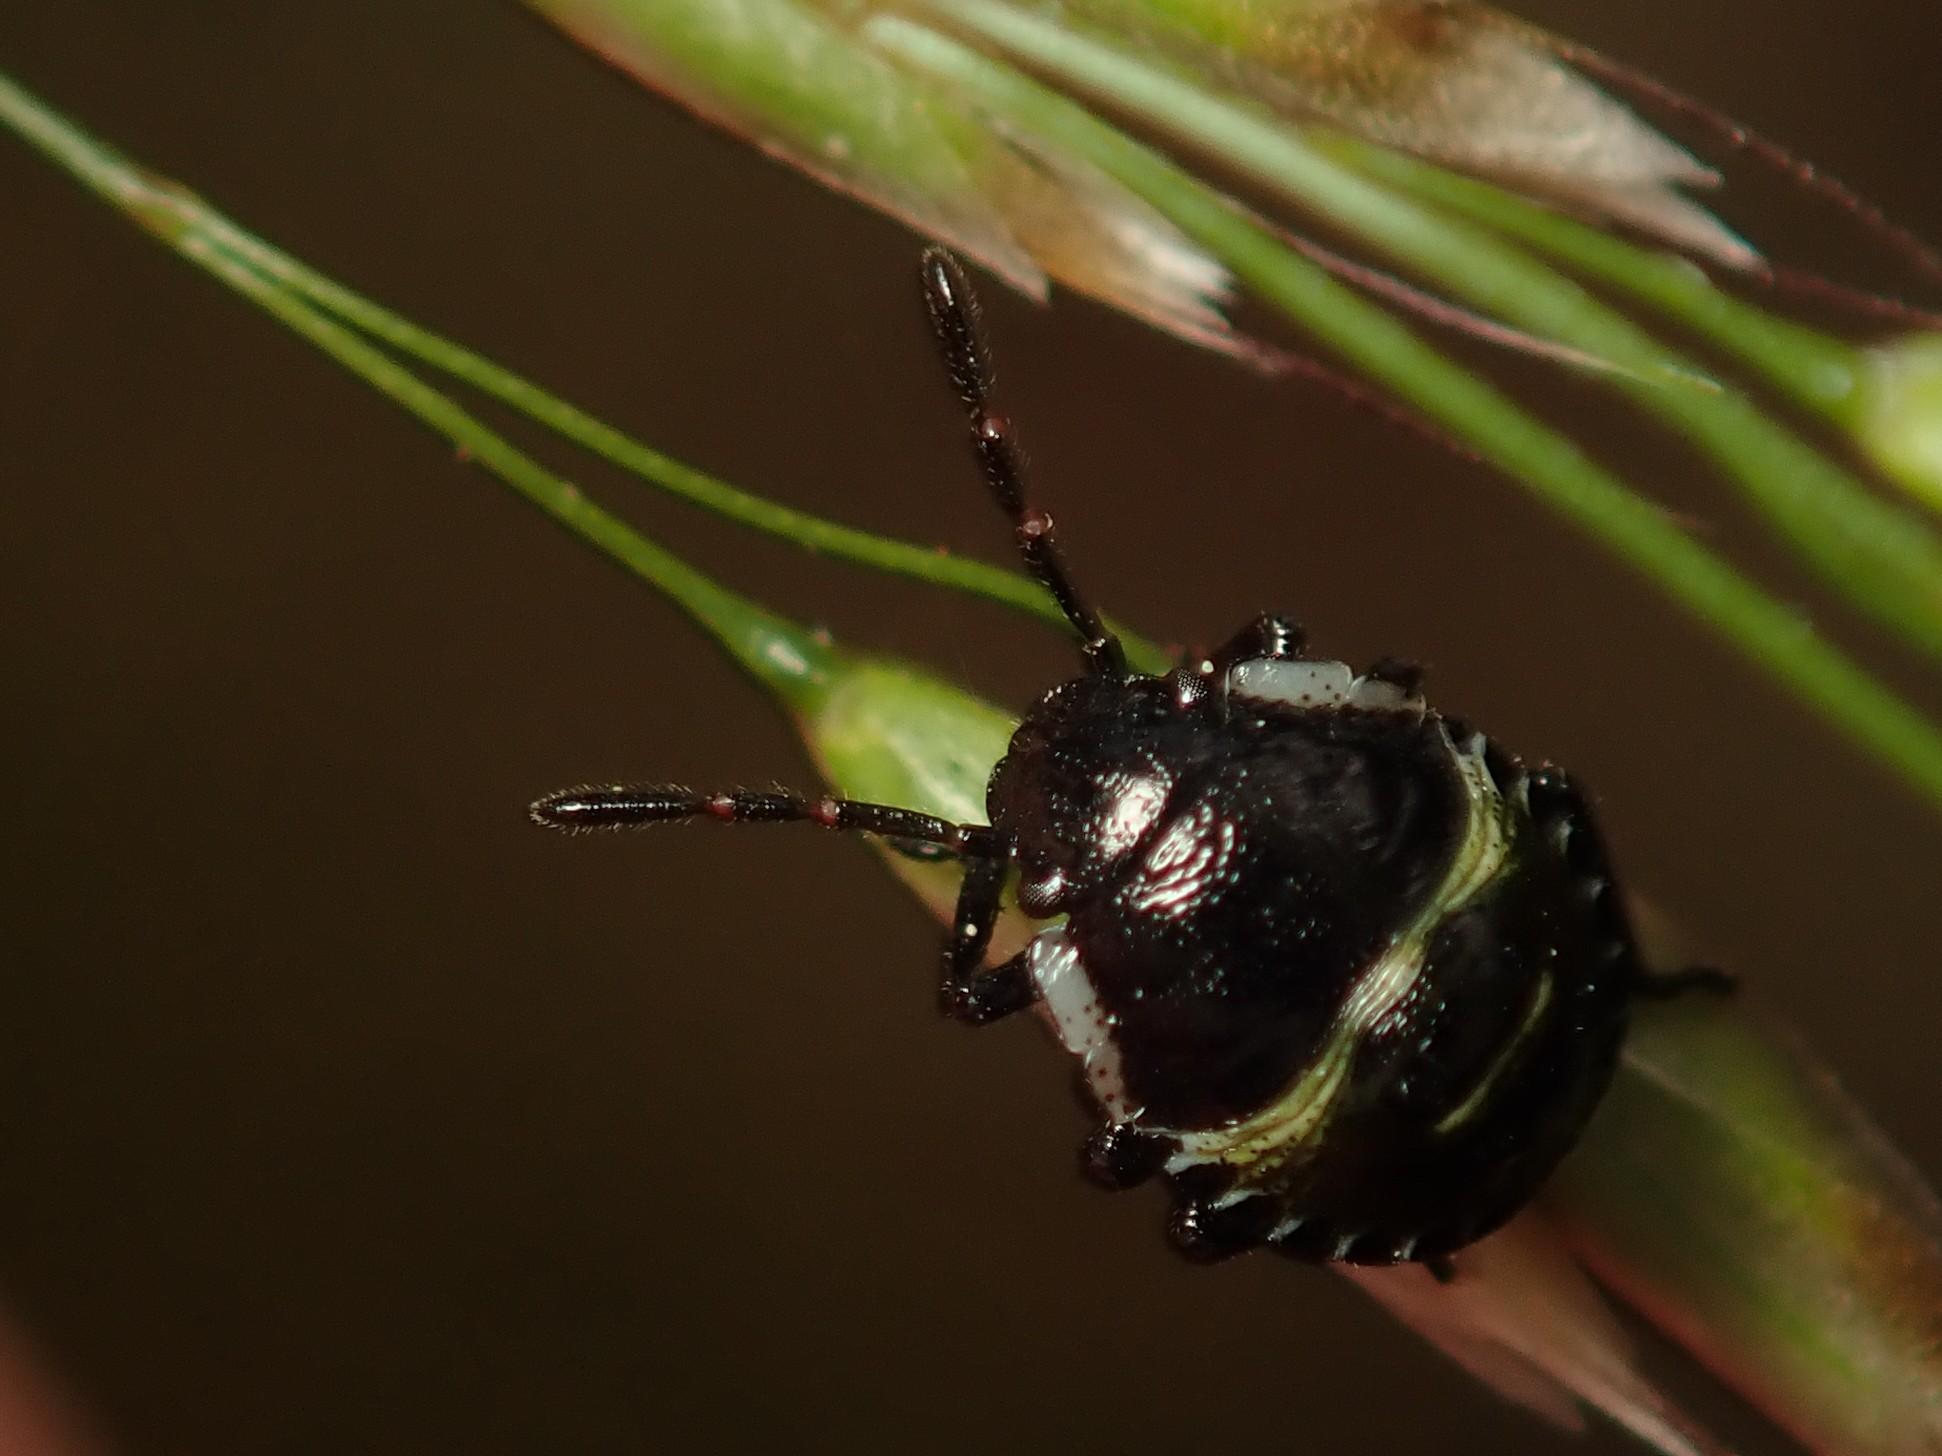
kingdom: Animalia
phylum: Arthropoda
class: Insecta
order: Hemiptera
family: Pentatomidae
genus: Palomena
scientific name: Palomena prasina
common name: Green shieldbug
